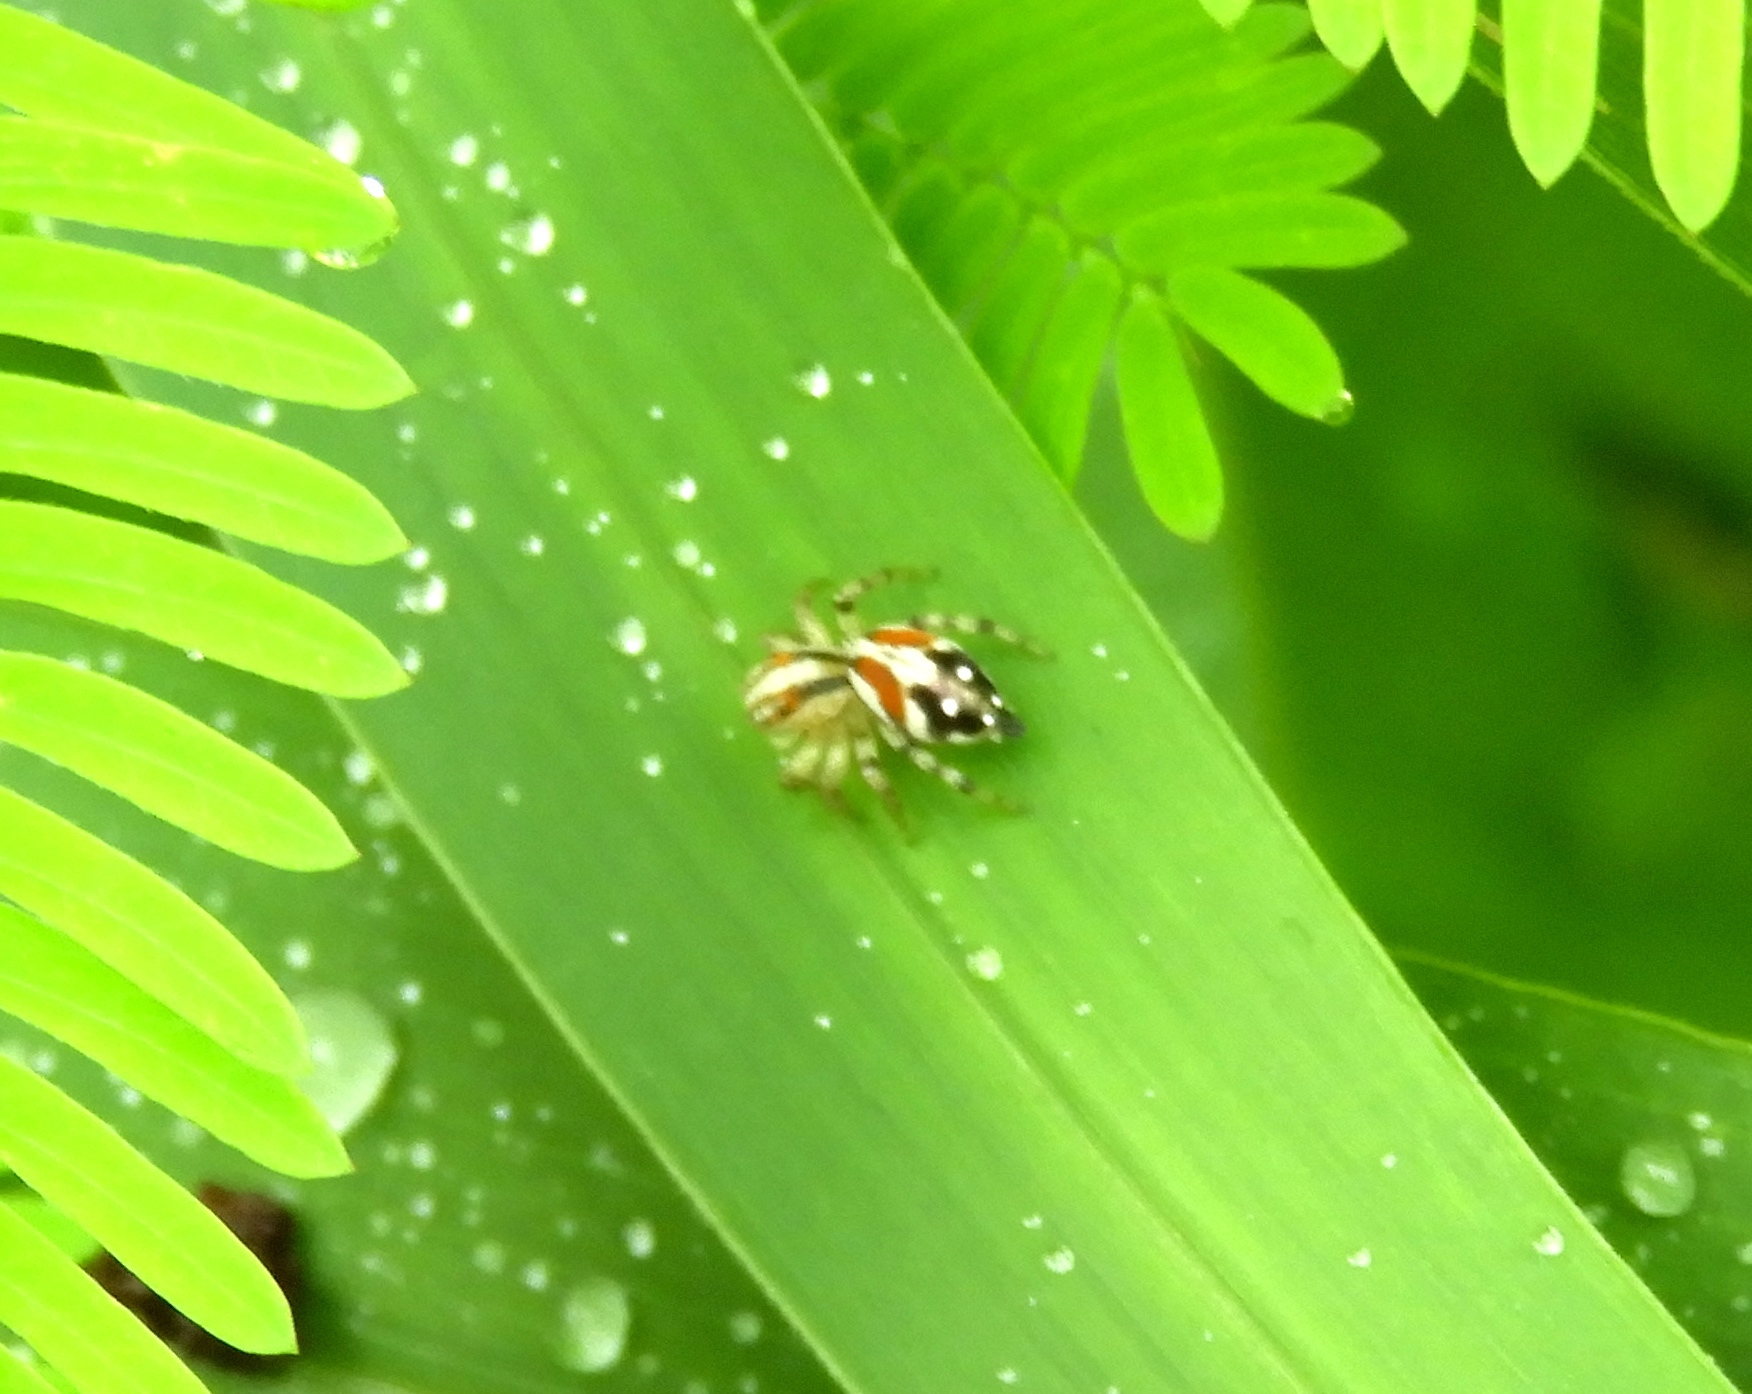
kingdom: Animalia
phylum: Arthropoda
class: Arachnida
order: Araneae
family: Salticidae
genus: Nycerella
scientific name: Nycerella delecta
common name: Jumping spiders
